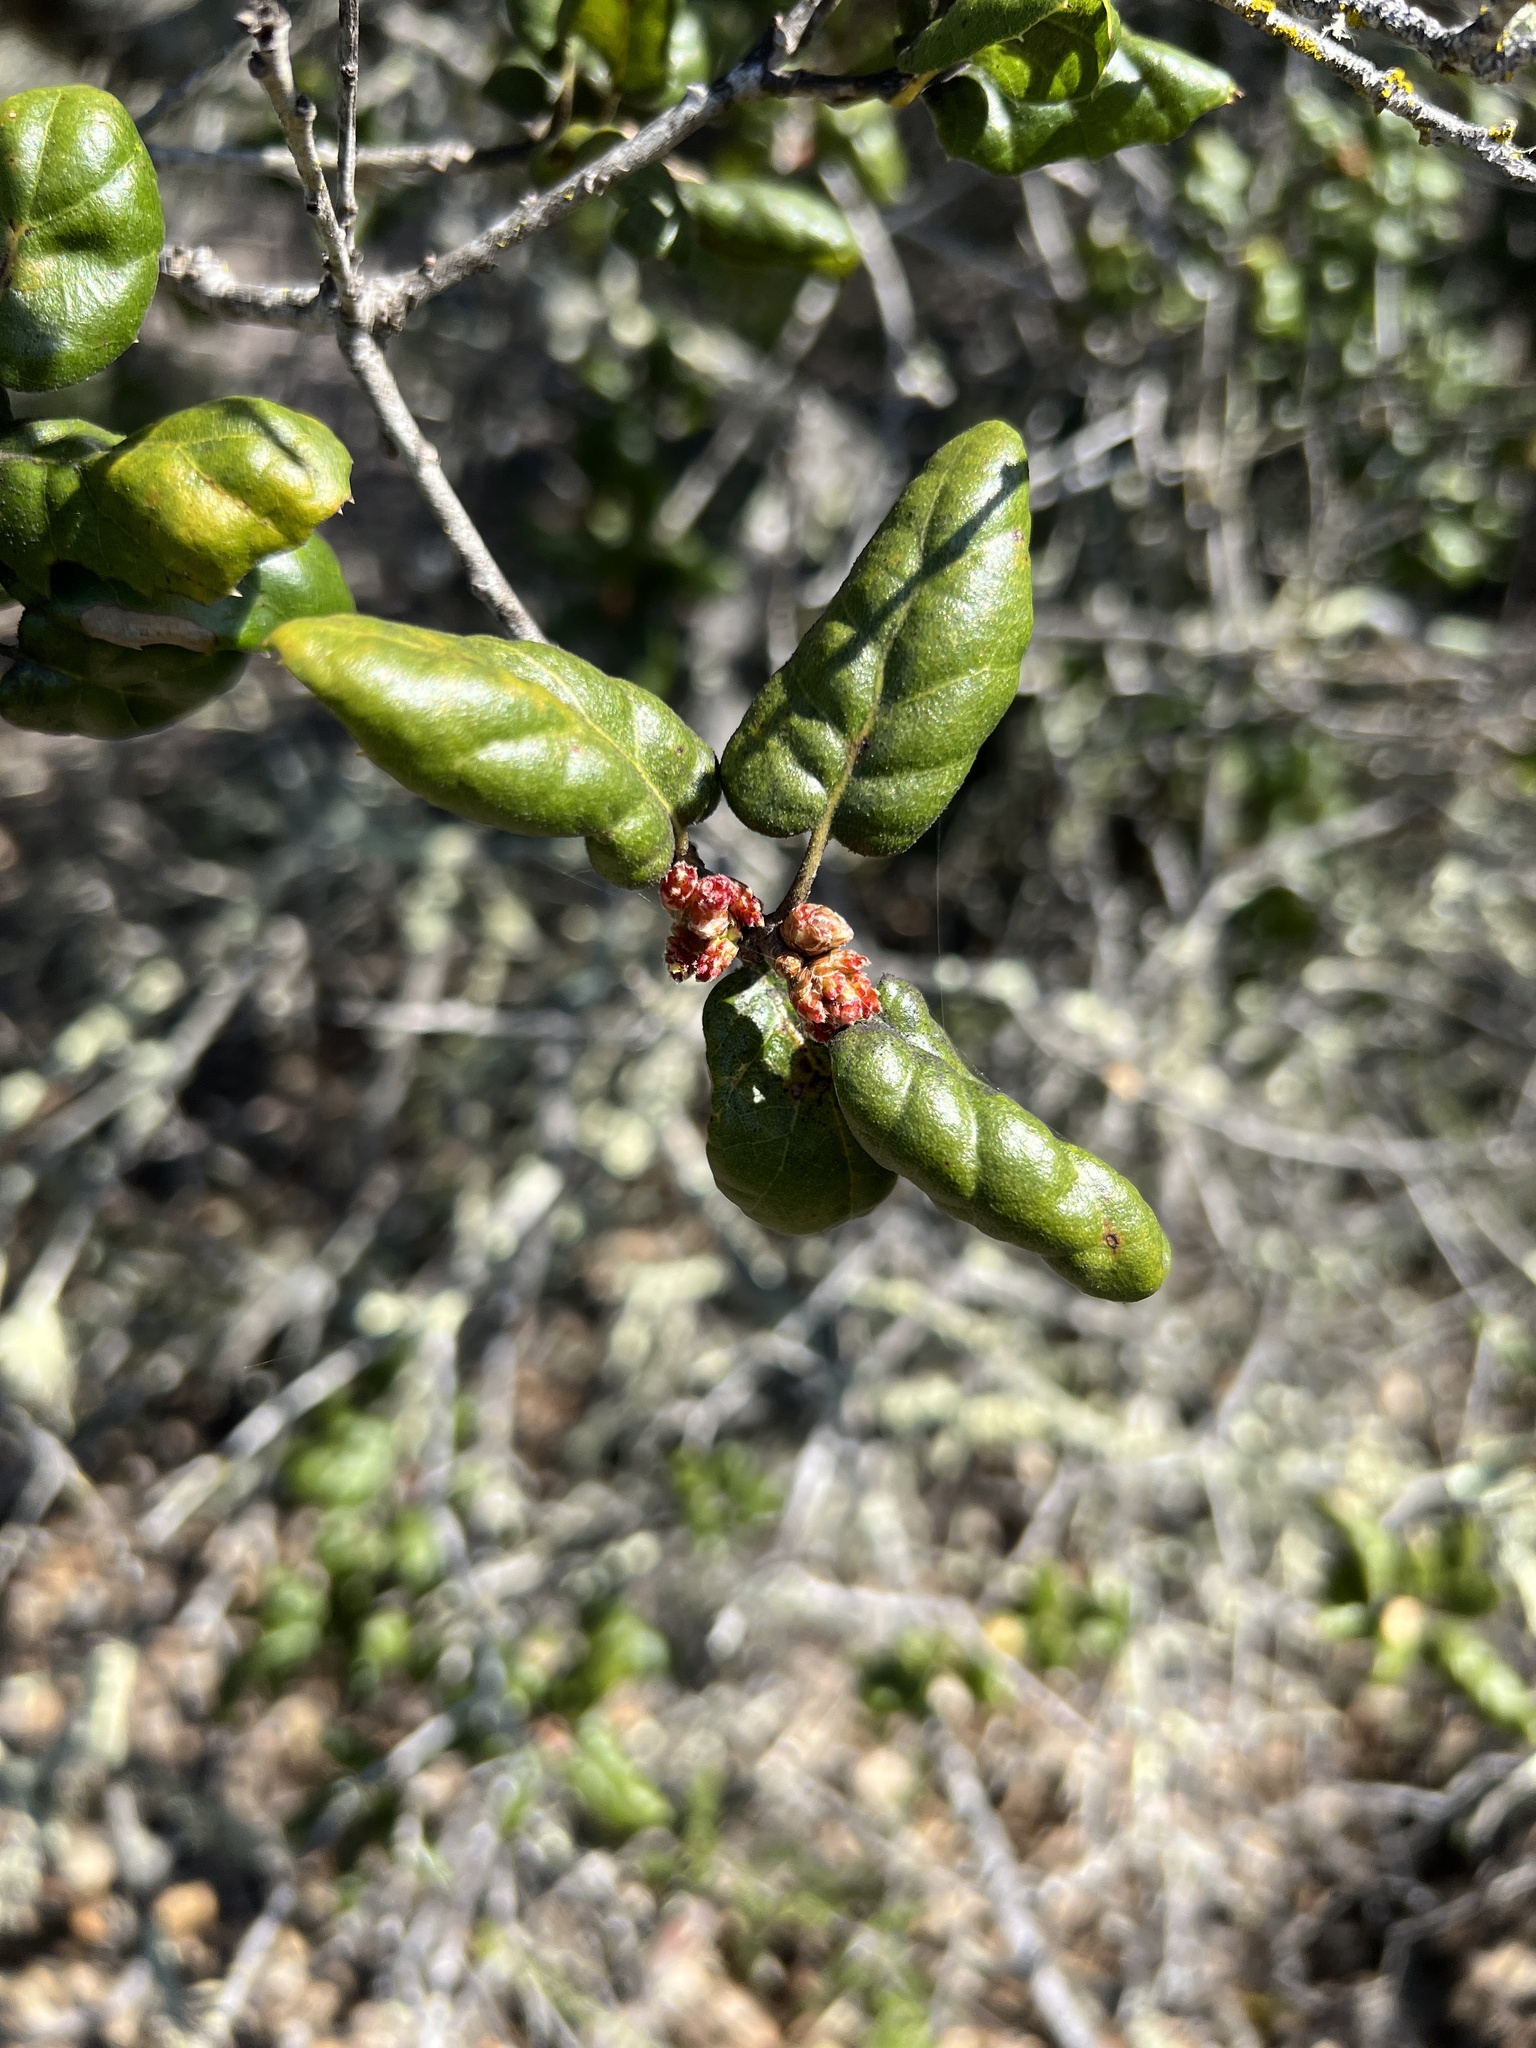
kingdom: Plantae
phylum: Tracheophyta
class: Magnoliopsida
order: Fagales
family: Fagaceae
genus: Quercus
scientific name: Quercus agrifolia
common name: California live oak
